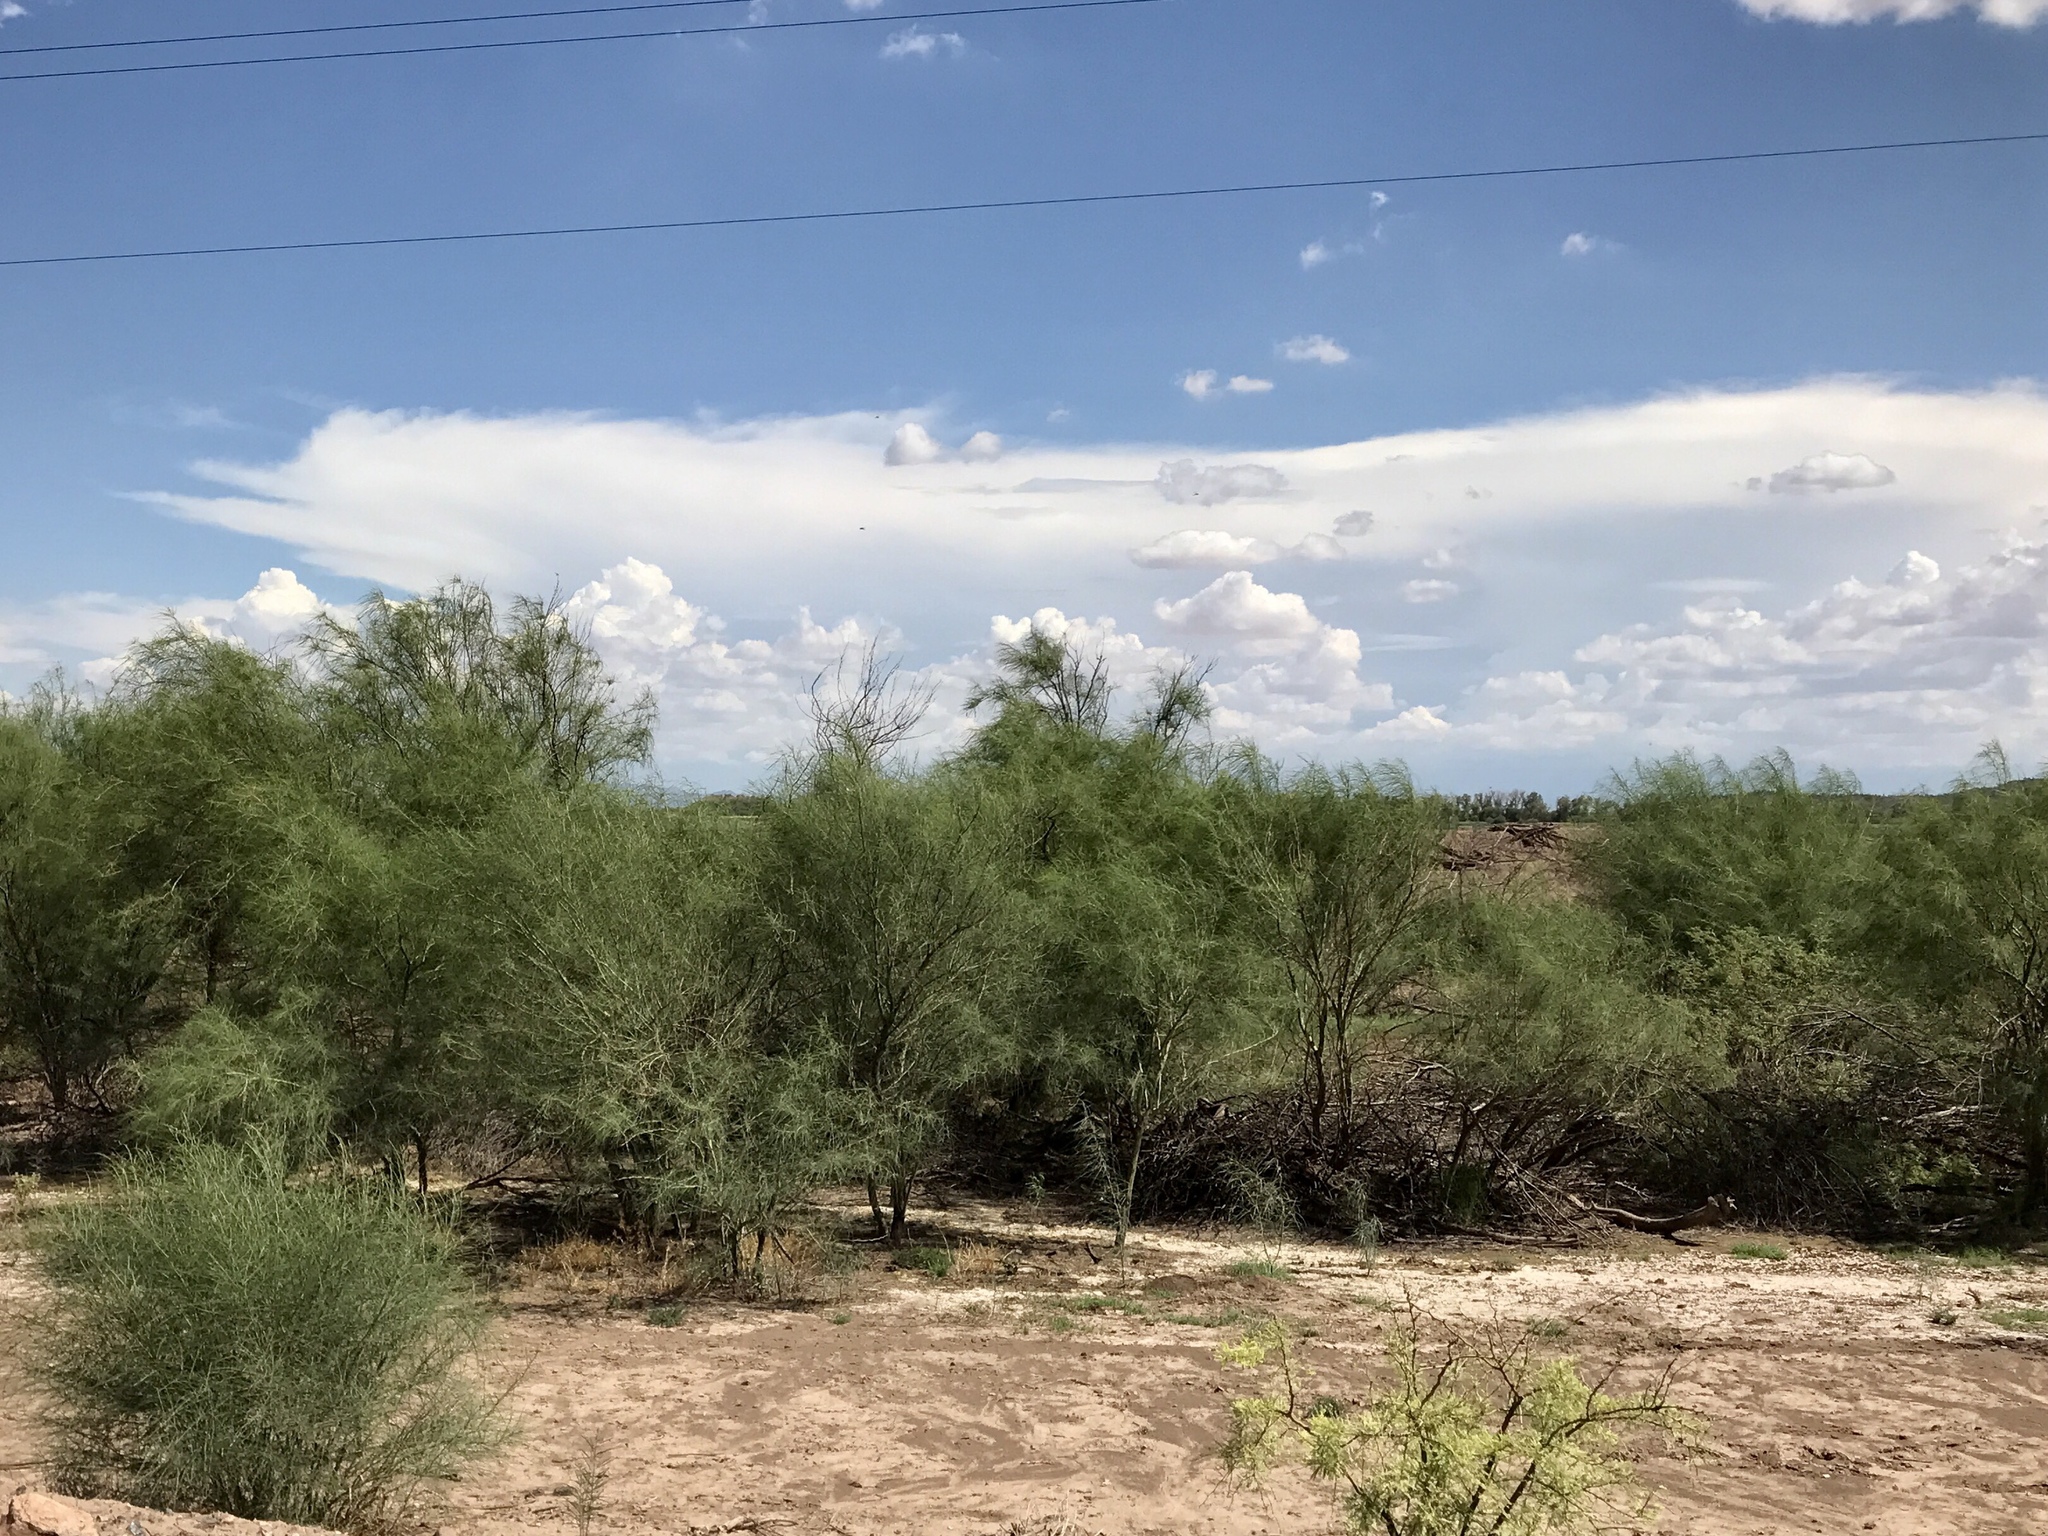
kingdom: Plantae
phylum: Tracheophyta
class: Magnoliopsida
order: Fabales
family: Fabaceae
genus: Parkinsonia
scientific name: Parkinsonia aculeata
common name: Jerusalem thorn
